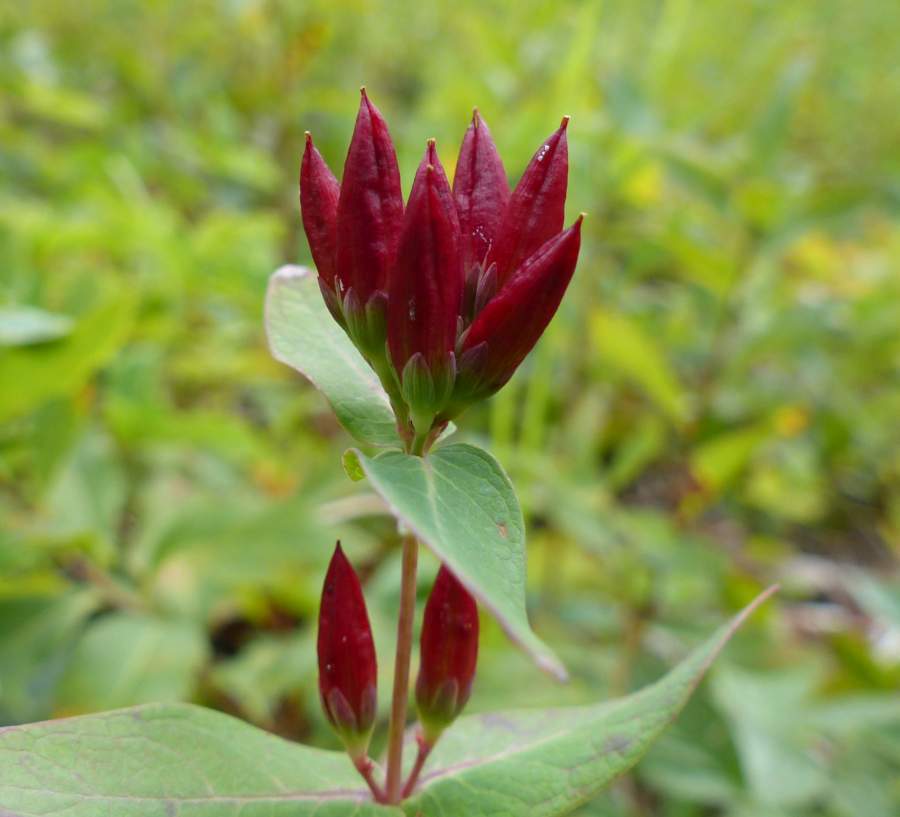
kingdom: Plantae
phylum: Tracheophyta
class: Magnoliopsida
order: Malpighiales
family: Hypericaceae
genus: Triadenum
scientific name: Triadenum fraseri
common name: Fraser's marsh st. johnswort
